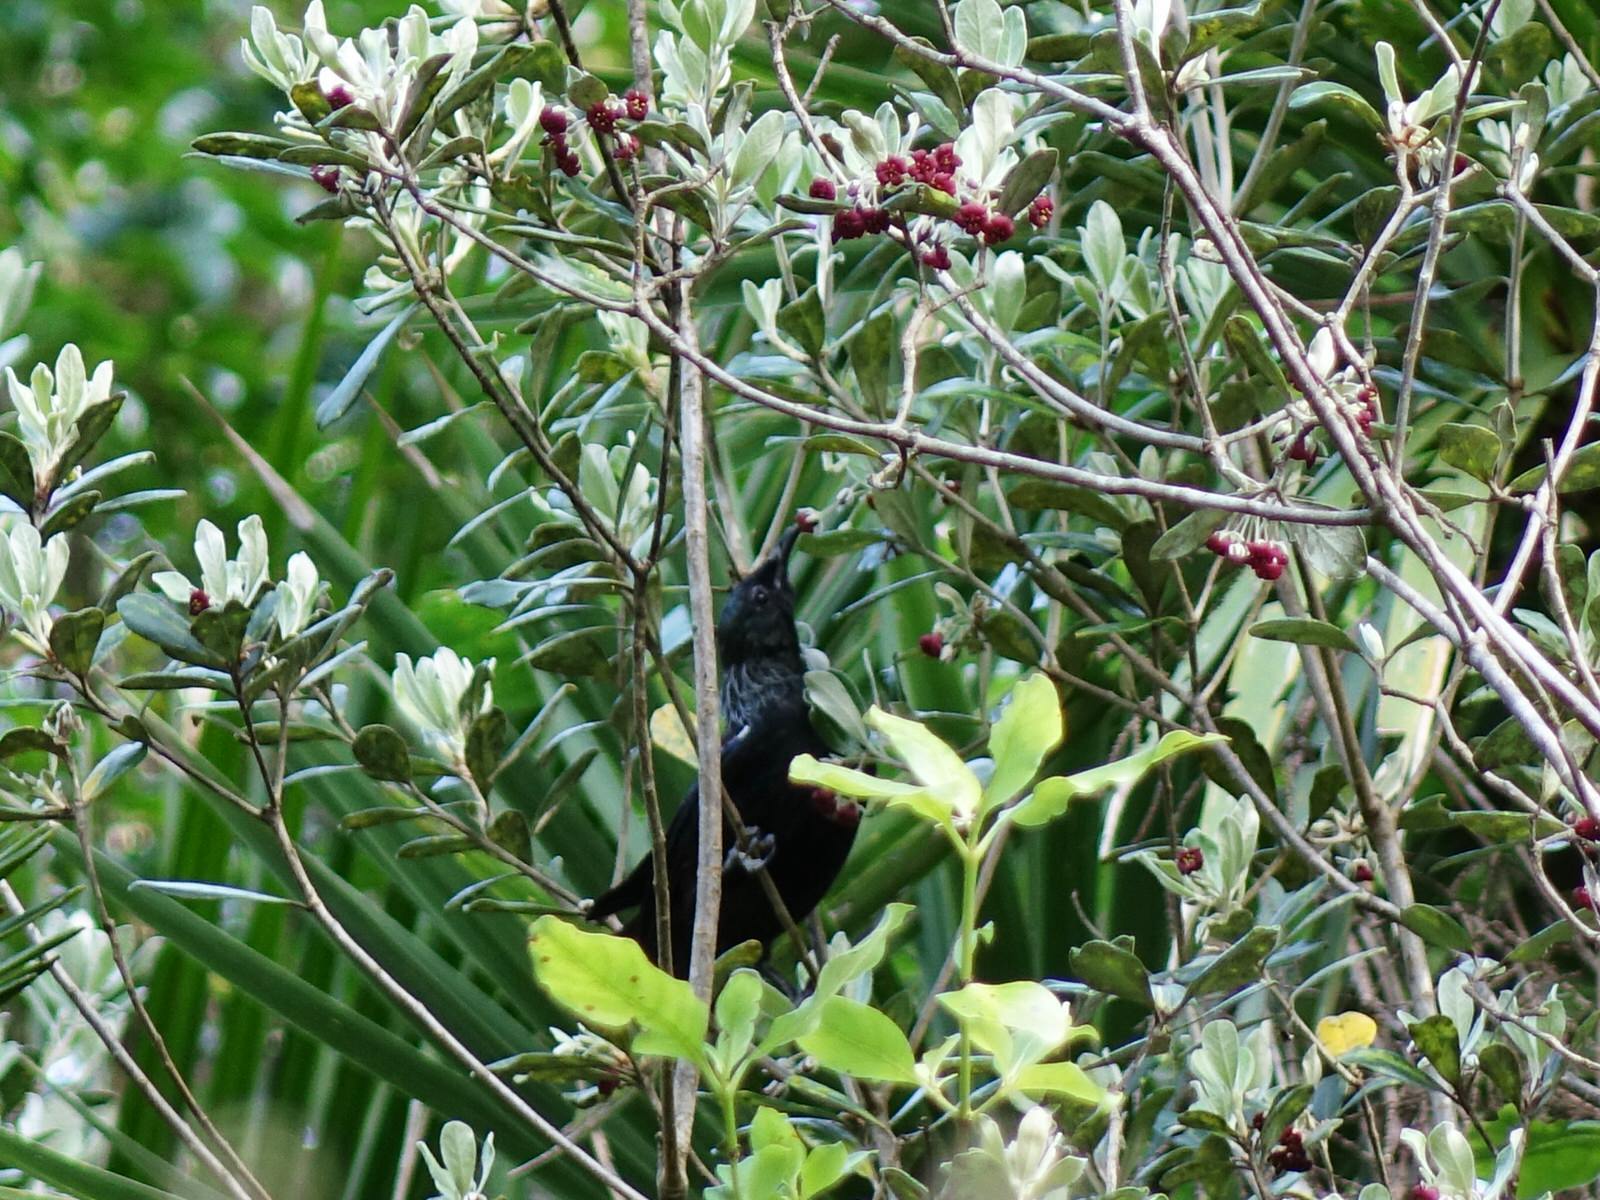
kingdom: Animalia
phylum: Chordata
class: Aves
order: Passeriformes
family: Meliphagidae
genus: Prosthemadera
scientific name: Prosthemadera novaeseelandiae
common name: Tui
